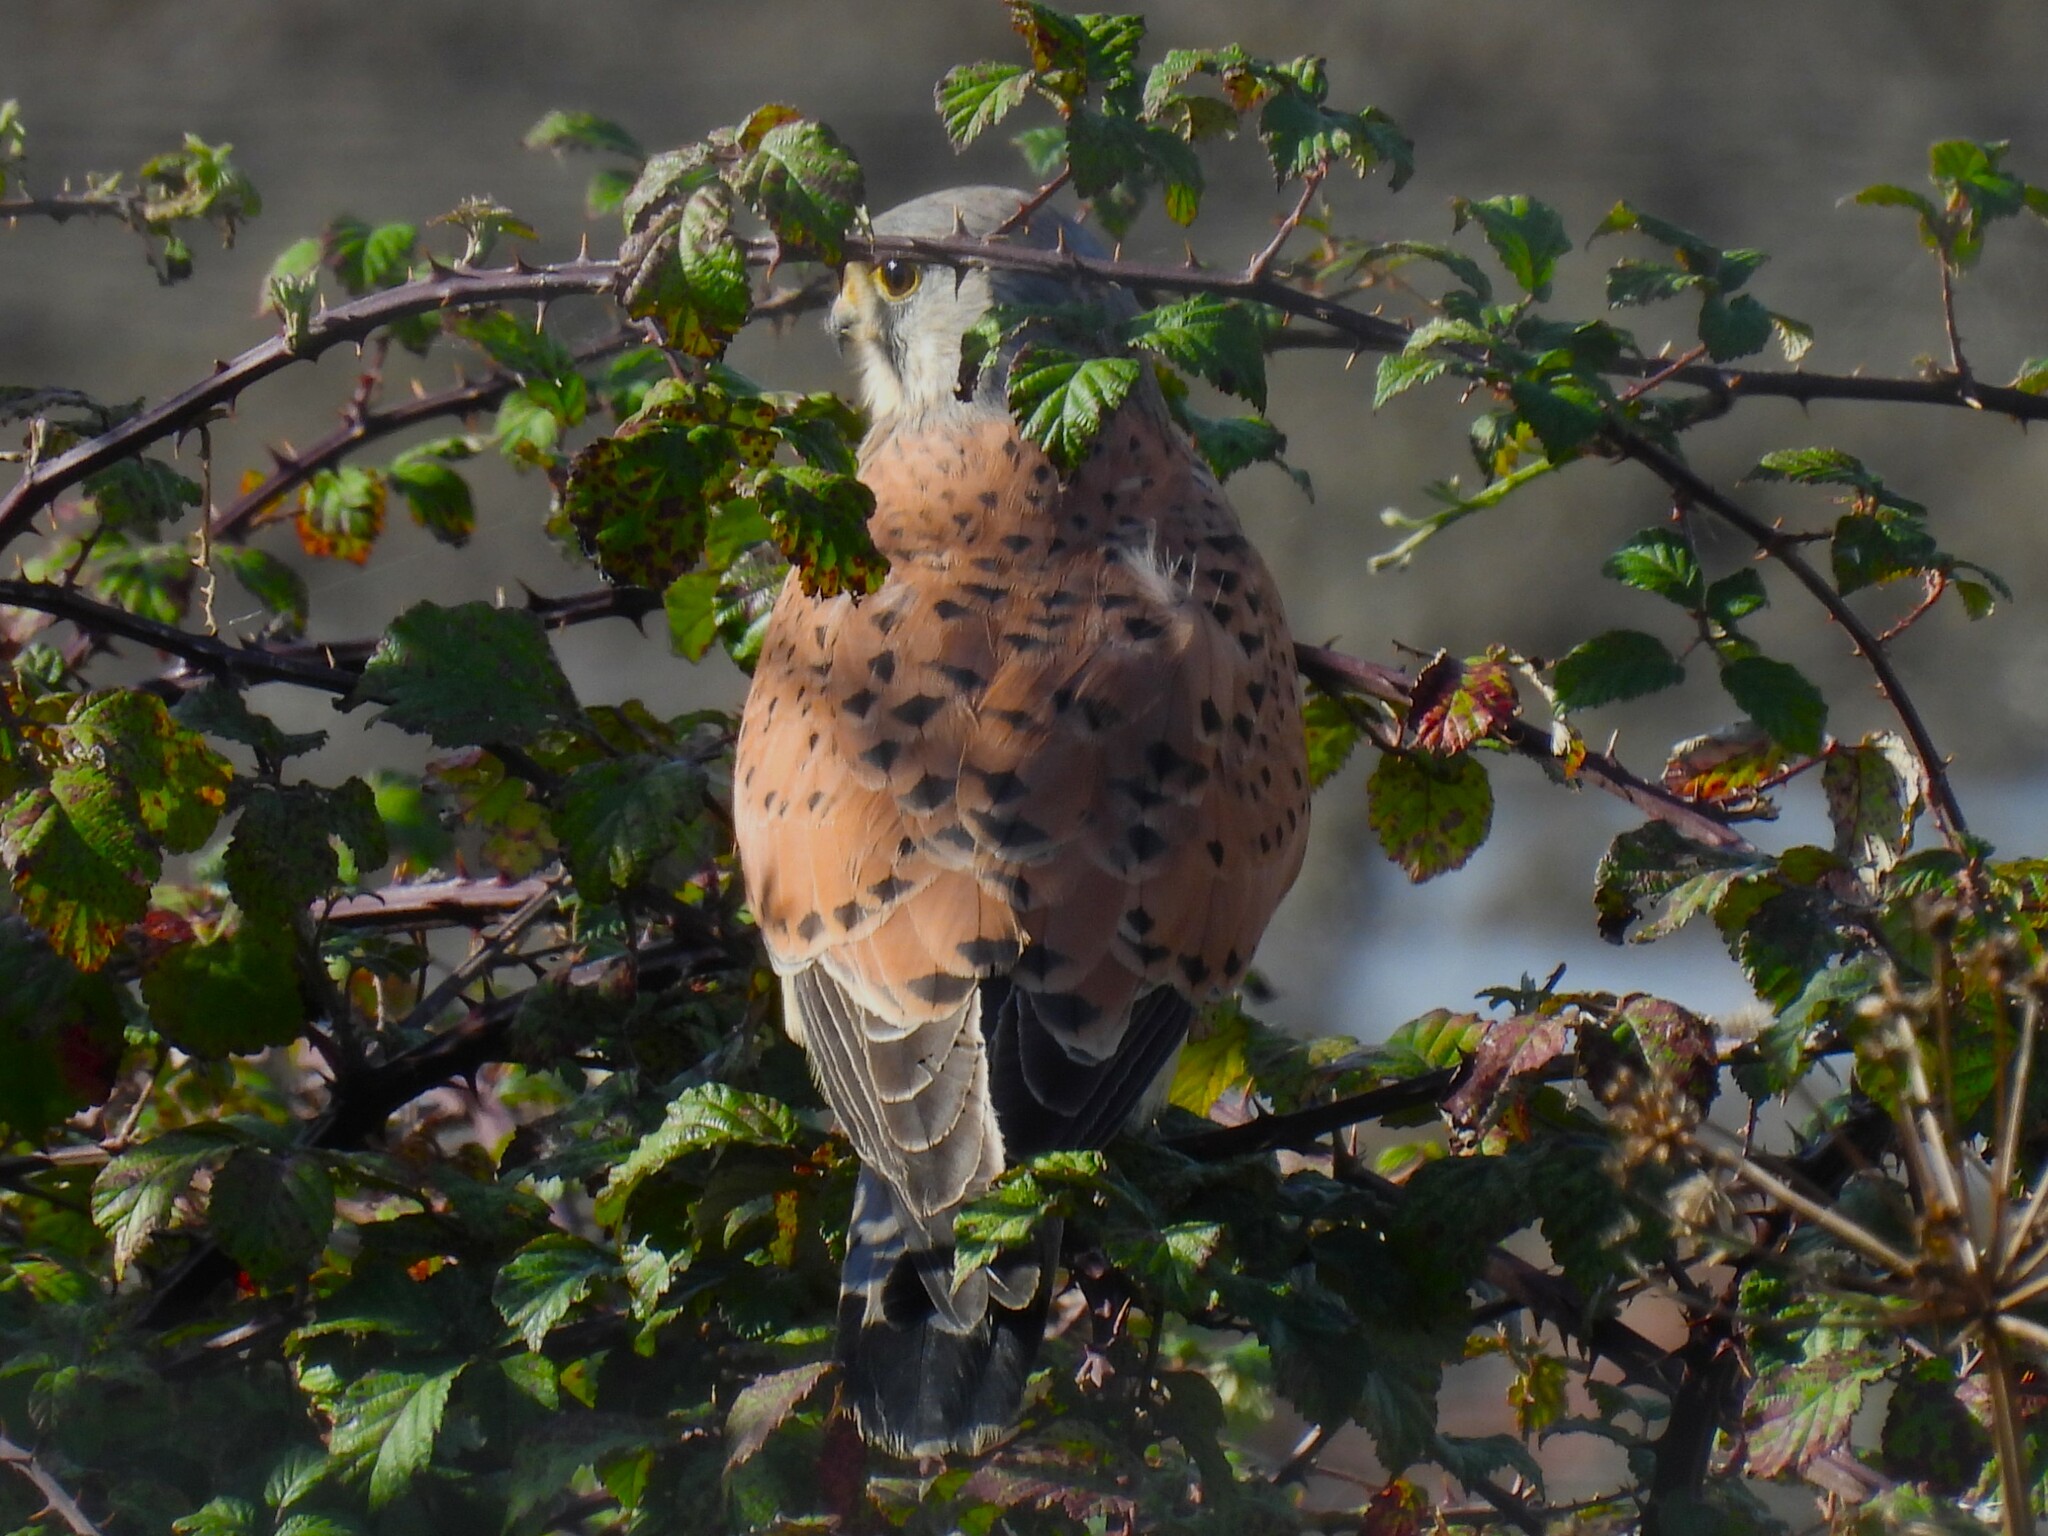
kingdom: Animalia
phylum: Chordata
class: Aves
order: Falconiformes
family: Falconidae
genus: Falco
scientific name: Falco tinnunculus
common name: Common kestrel
